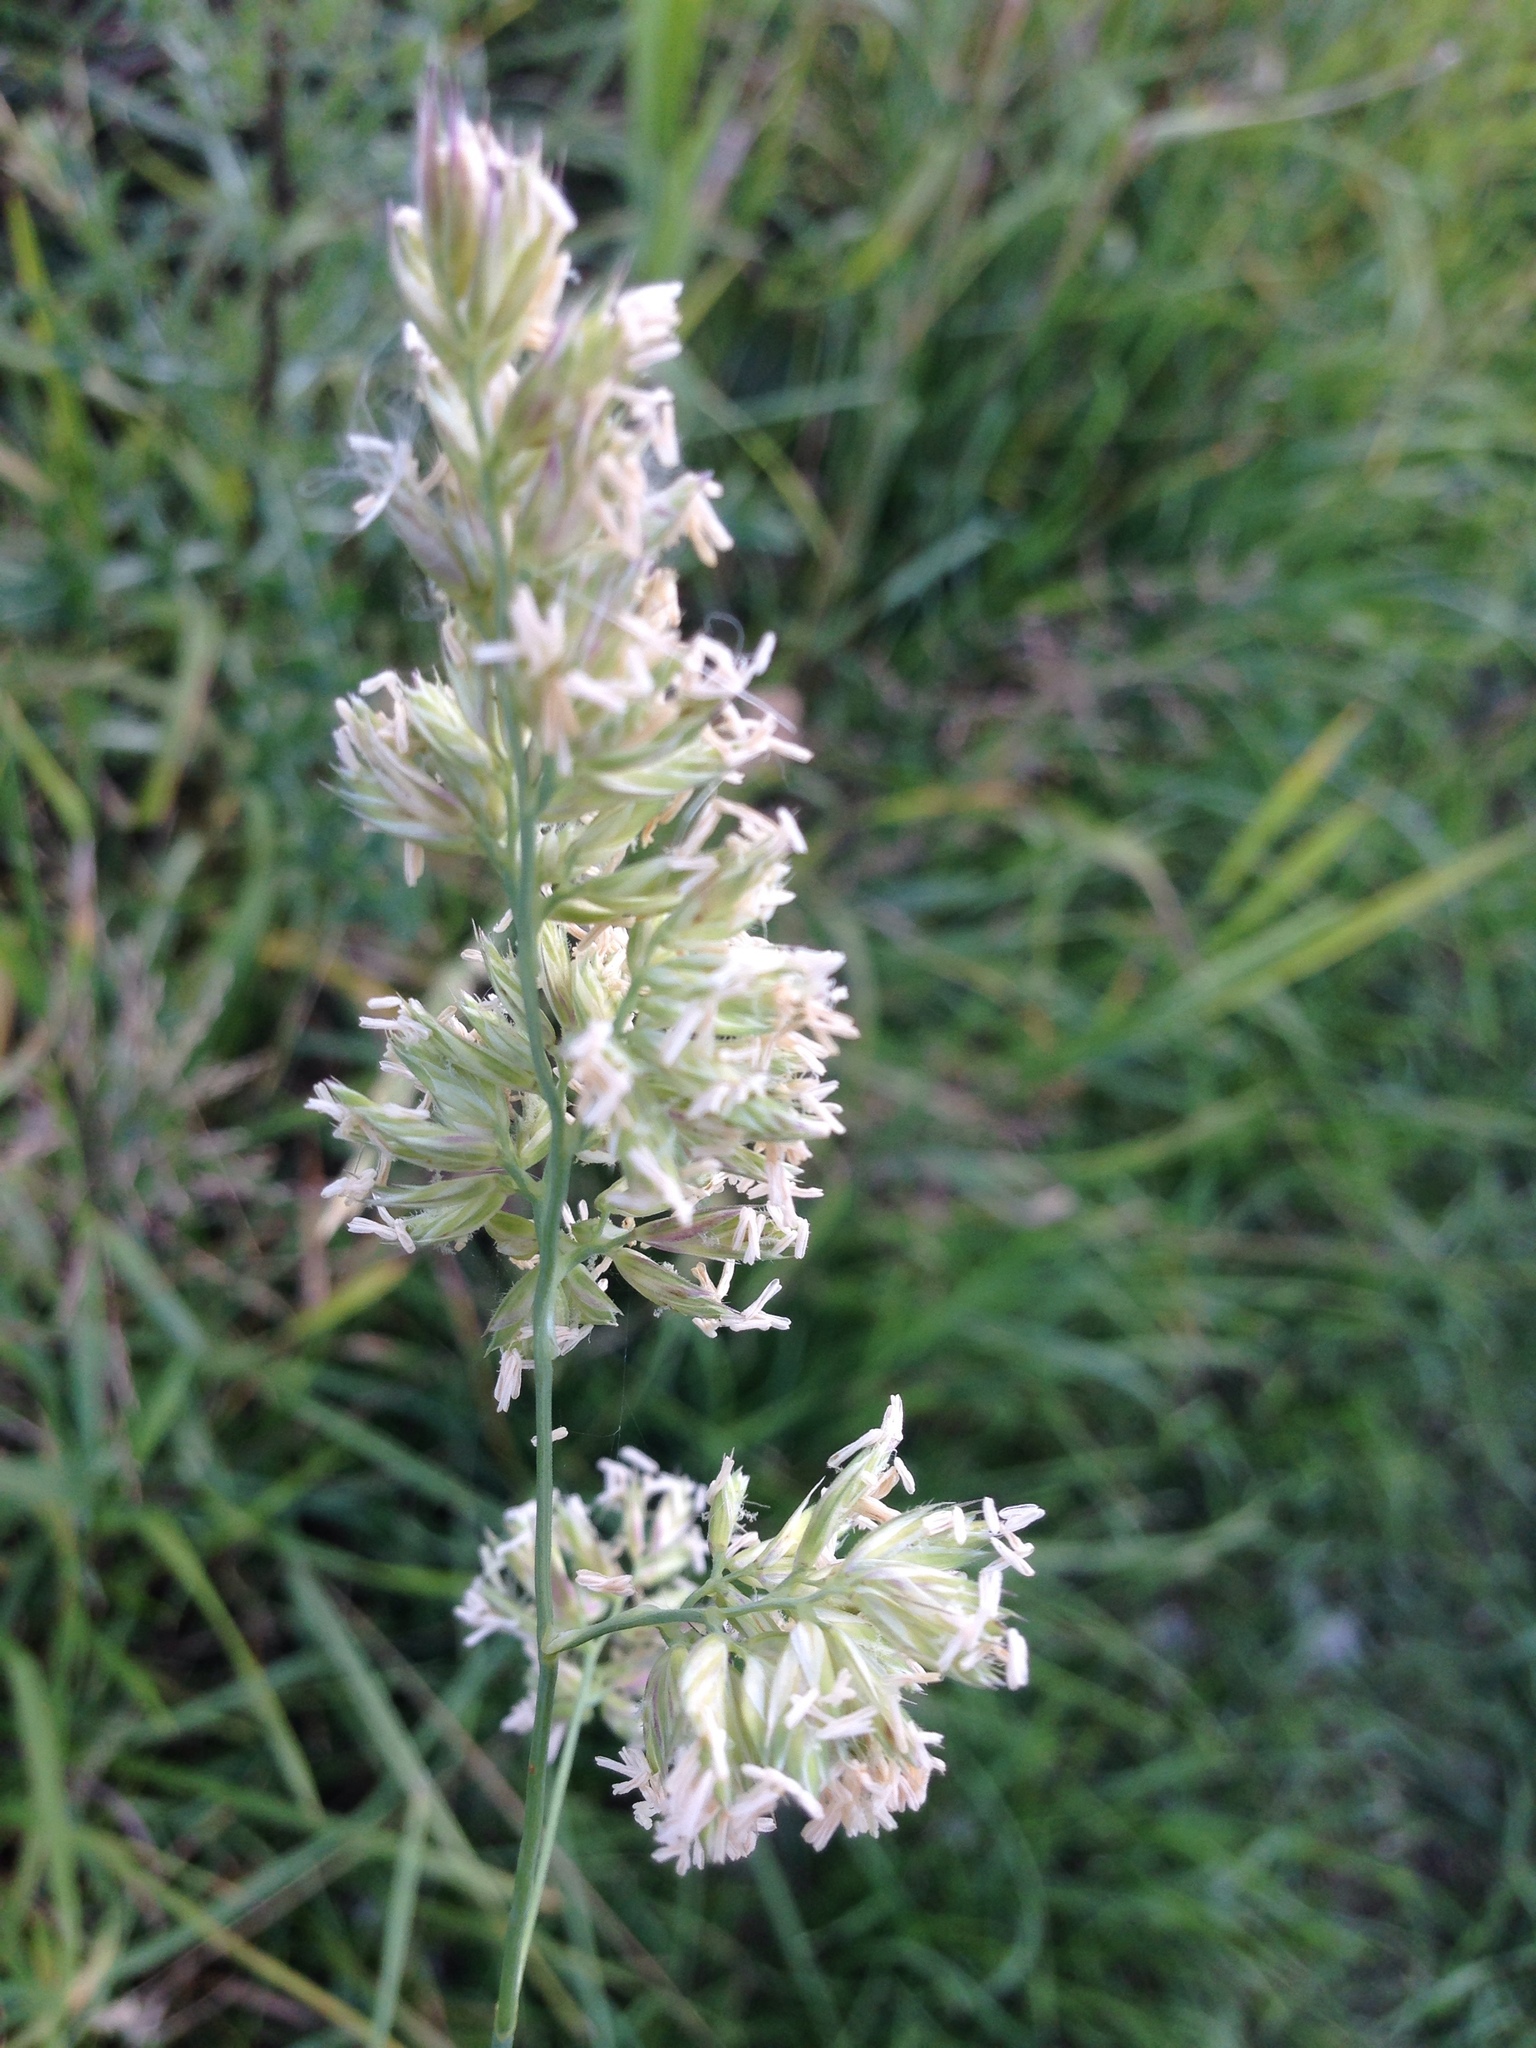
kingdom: Plantae
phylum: Tracheophyta
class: Liliopsida
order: Poales
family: Poaceae
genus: Dactylis
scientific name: Dactylis glomerata
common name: Orchardgrass
